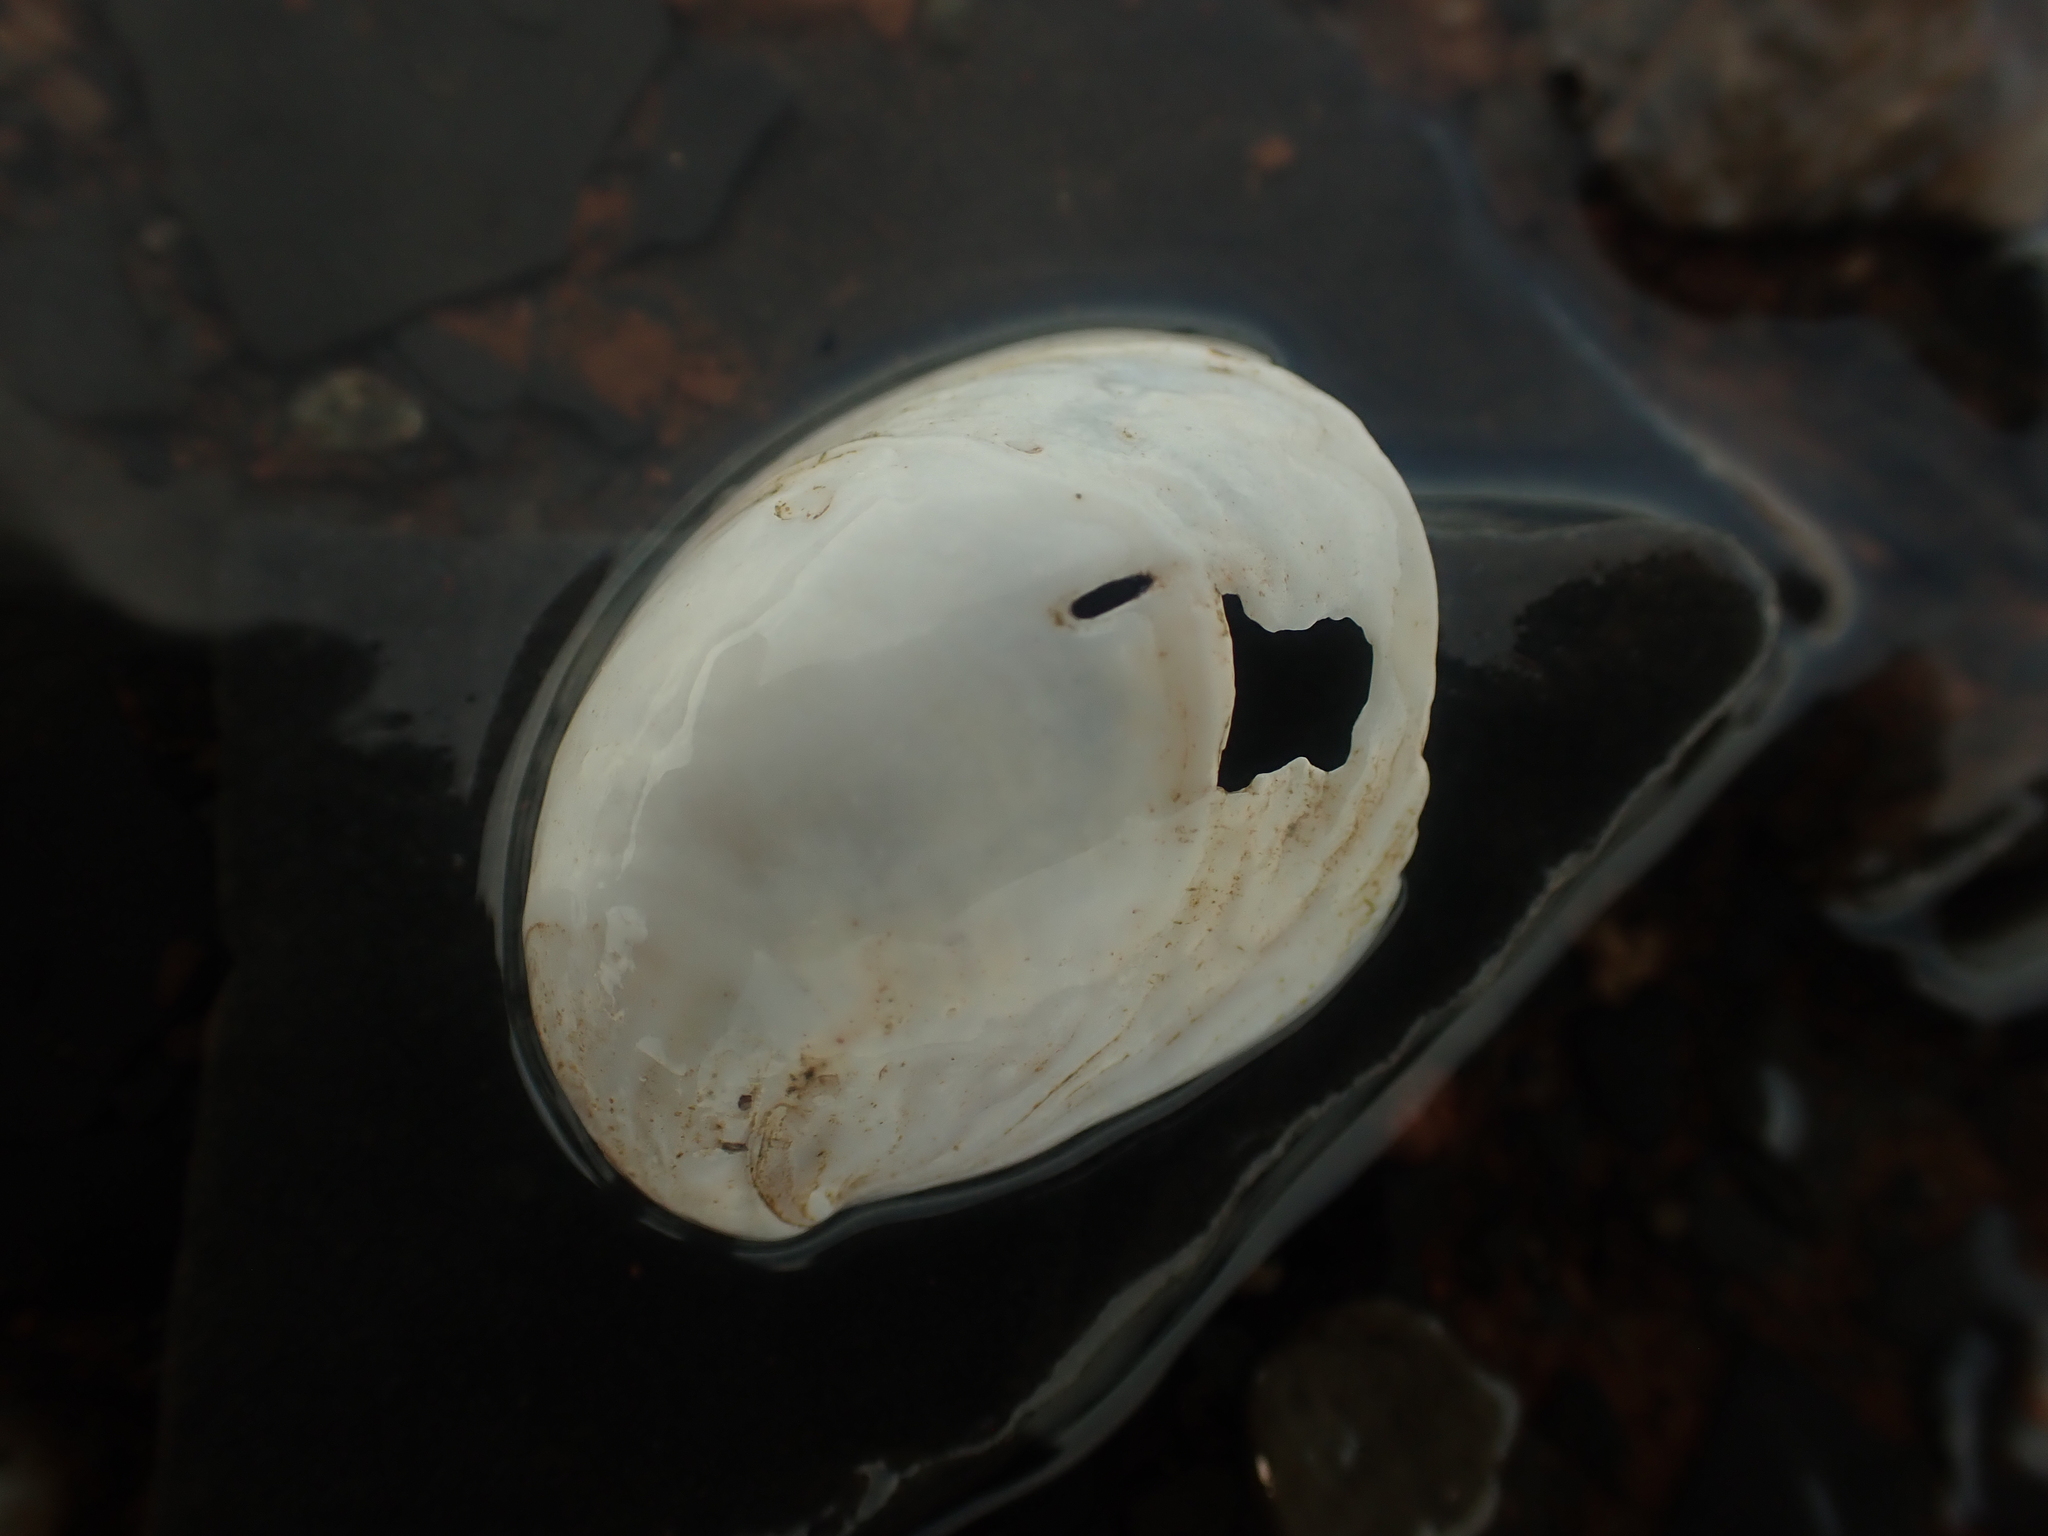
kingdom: Animalia
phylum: Mollusca
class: Gastropoda
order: Littorinimorpha
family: Calyptraeidae
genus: Crepidula
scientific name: Crepidula fornicata
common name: Slipper limpet
